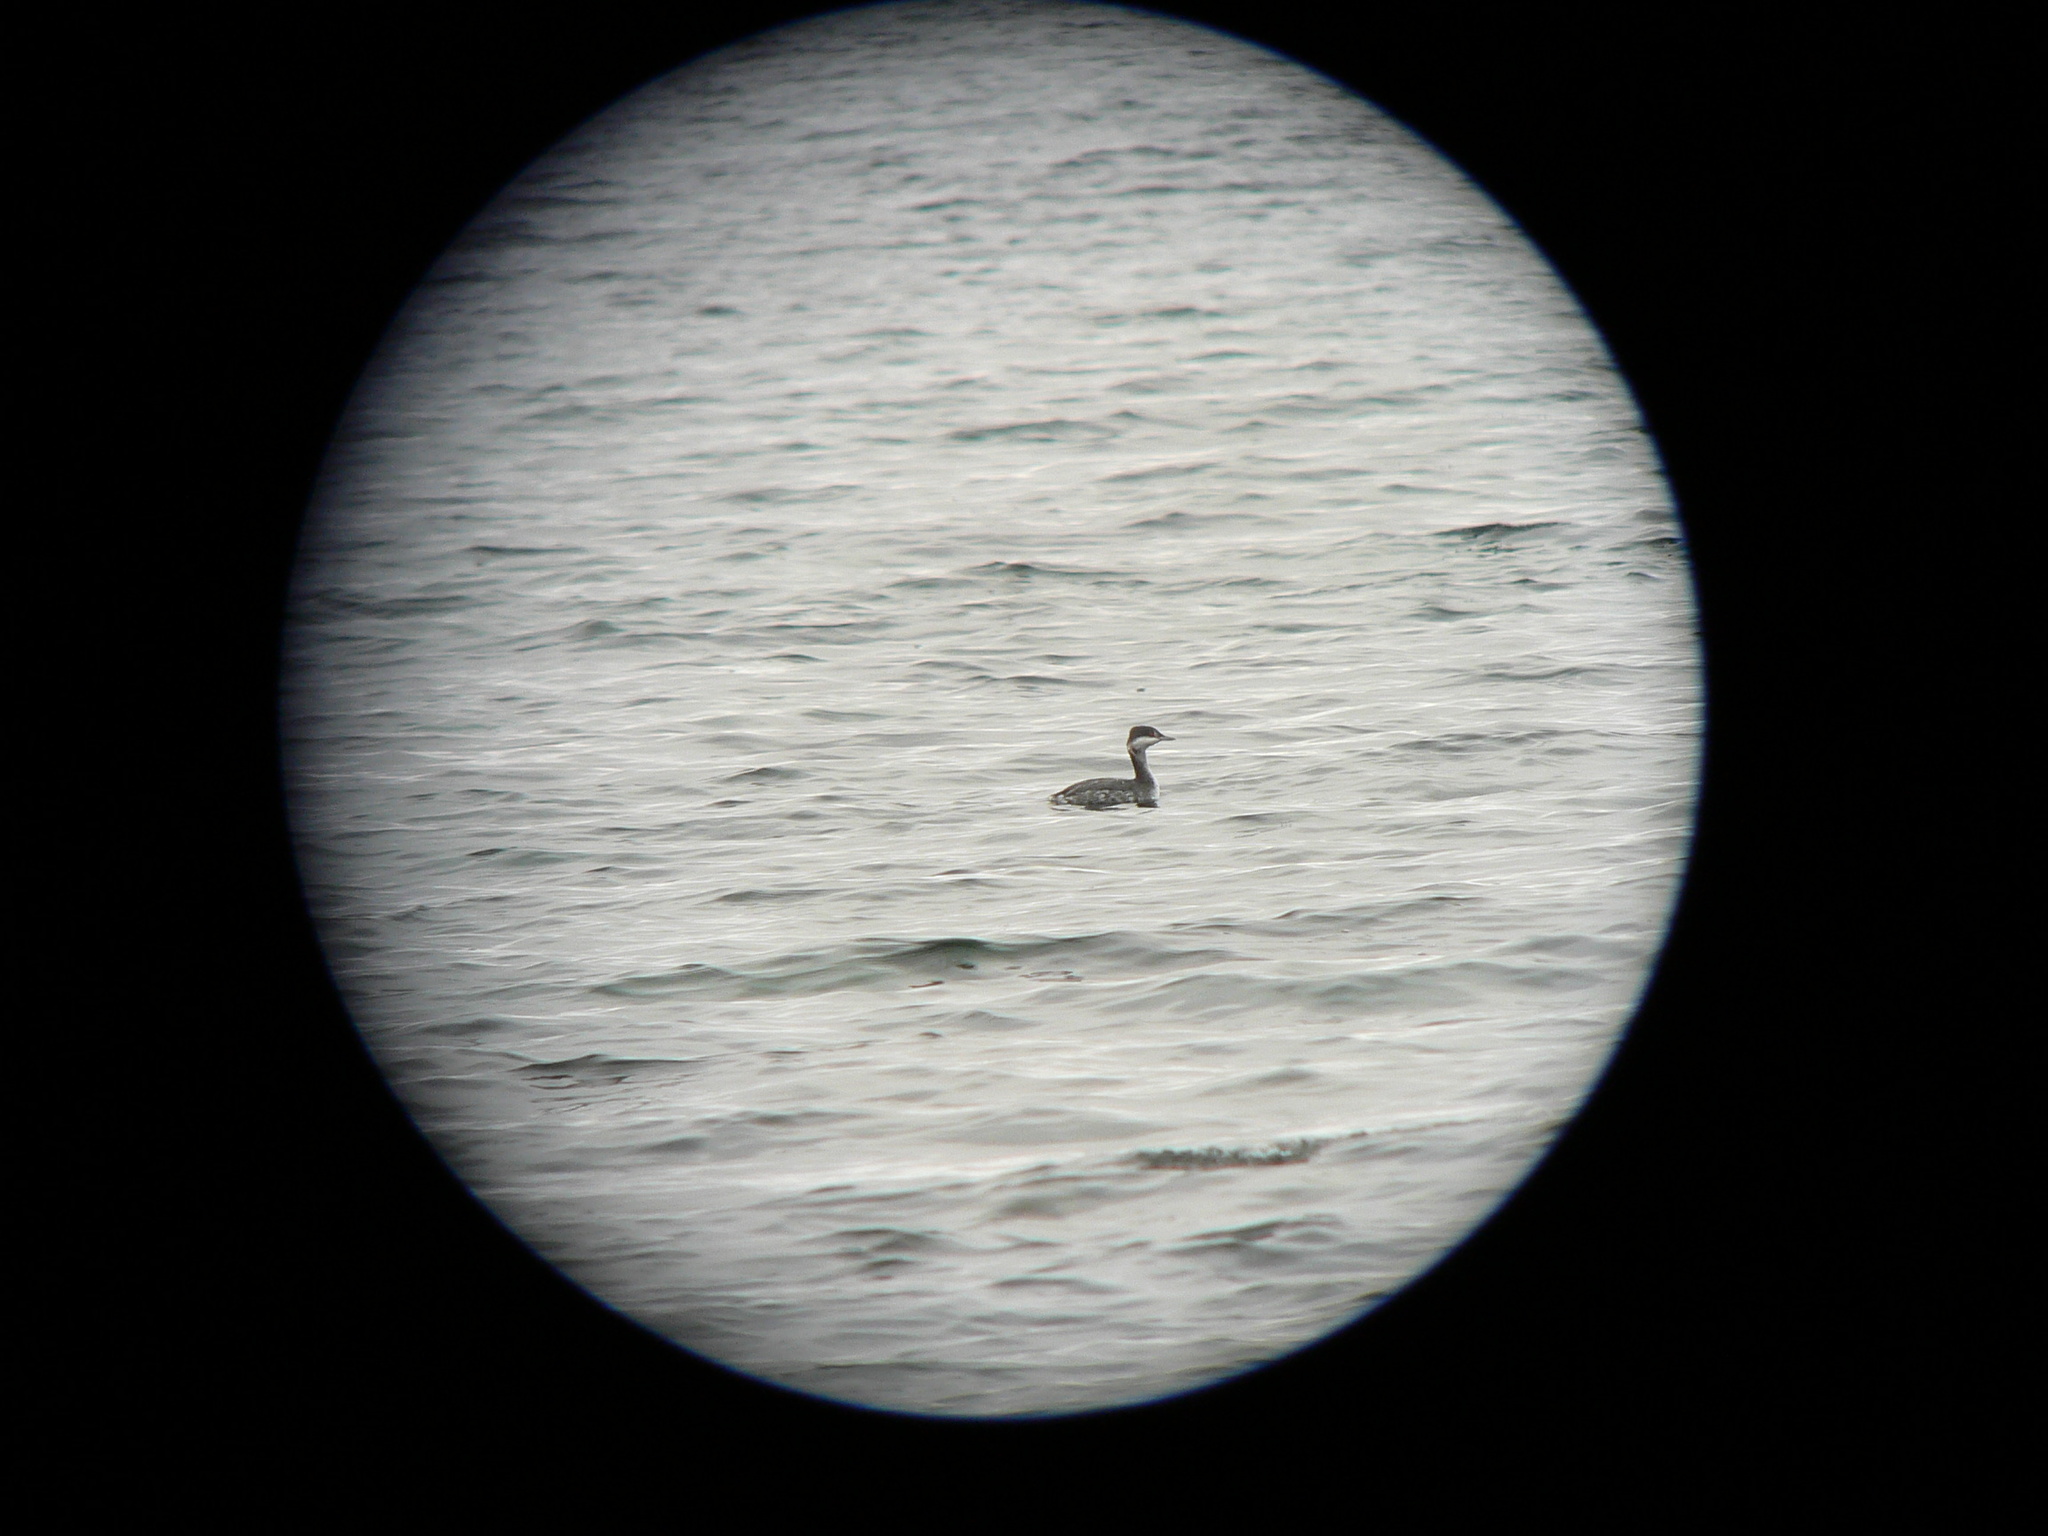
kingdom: Animalia
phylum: Chordata
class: Aves
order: Podicipediformes
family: Podicipedidae
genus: Podiceps
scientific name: Podiceps auritus
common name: Horned grebe
